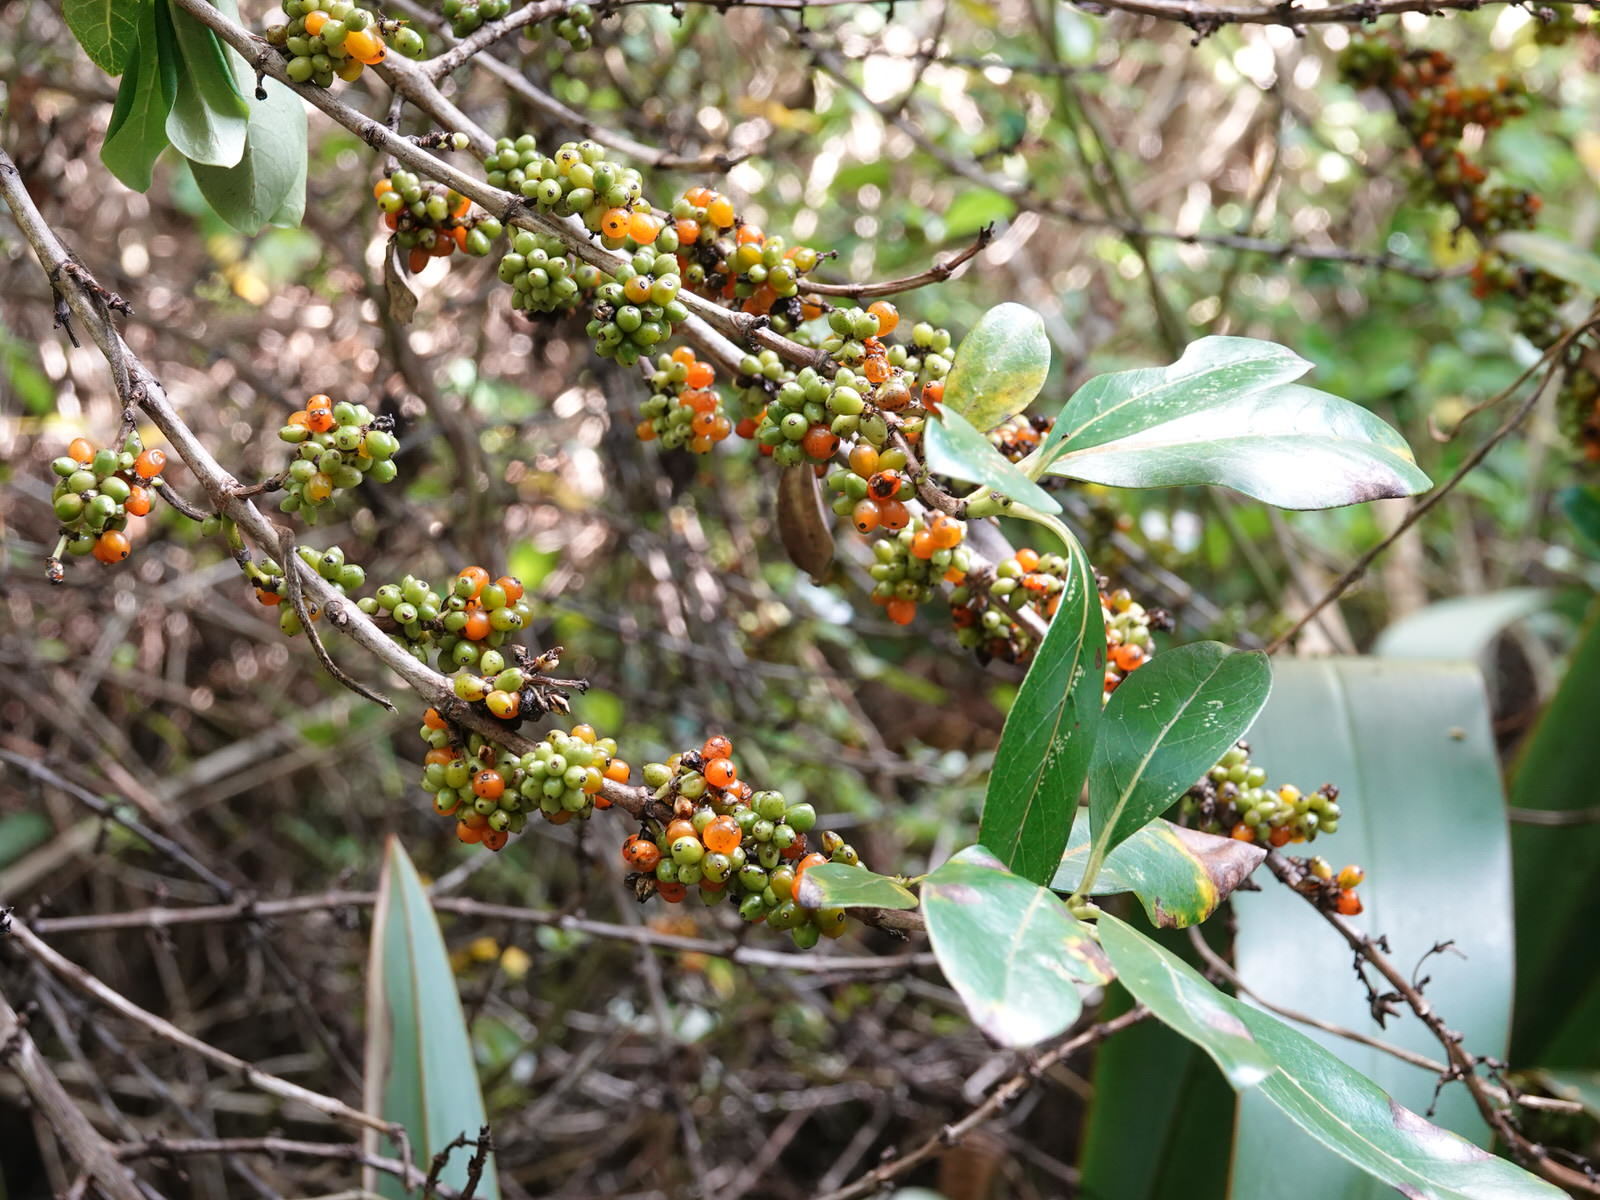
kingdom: Plantae
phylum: Tracheophyta
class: Magnoliopsida
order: Gentianales
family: Rubiaceae
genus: Coprosma
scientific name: Coprosma robusta
